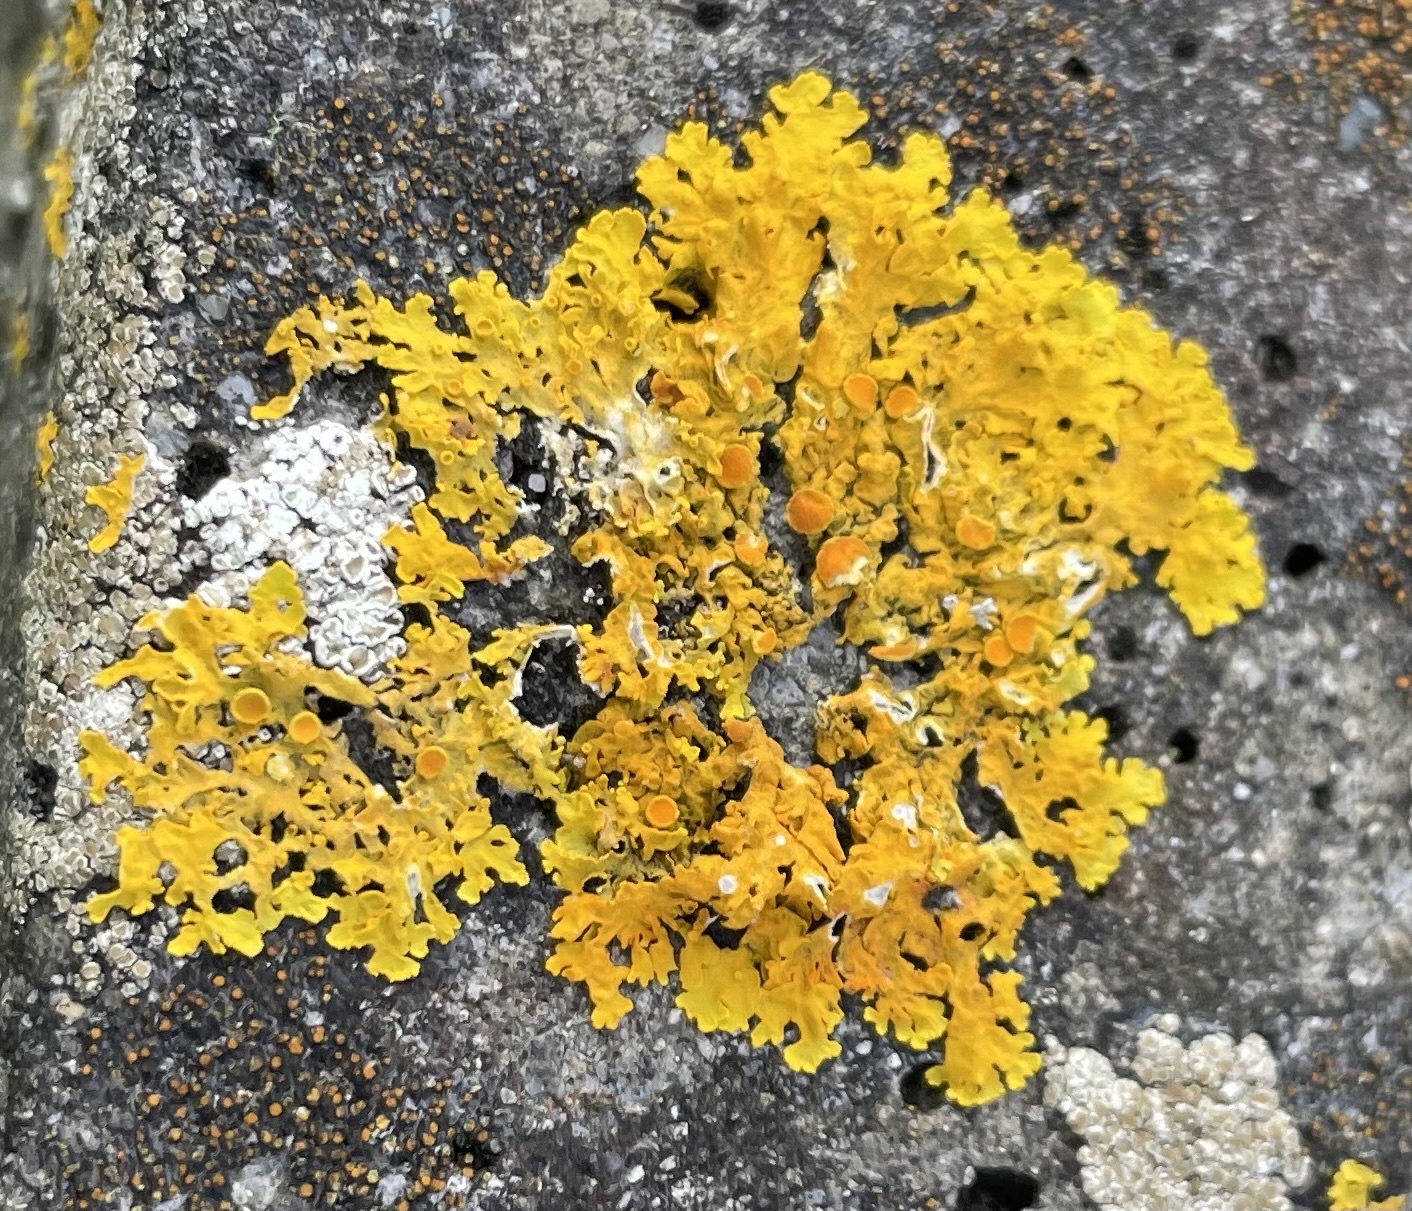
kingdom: Fungi
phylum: Ascomycota
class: Lecanoromycetes
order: Teloschistales
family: Teloschistaceae
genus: Xanthoria
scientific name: Xanthoria parietina
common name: Common orange lichen
